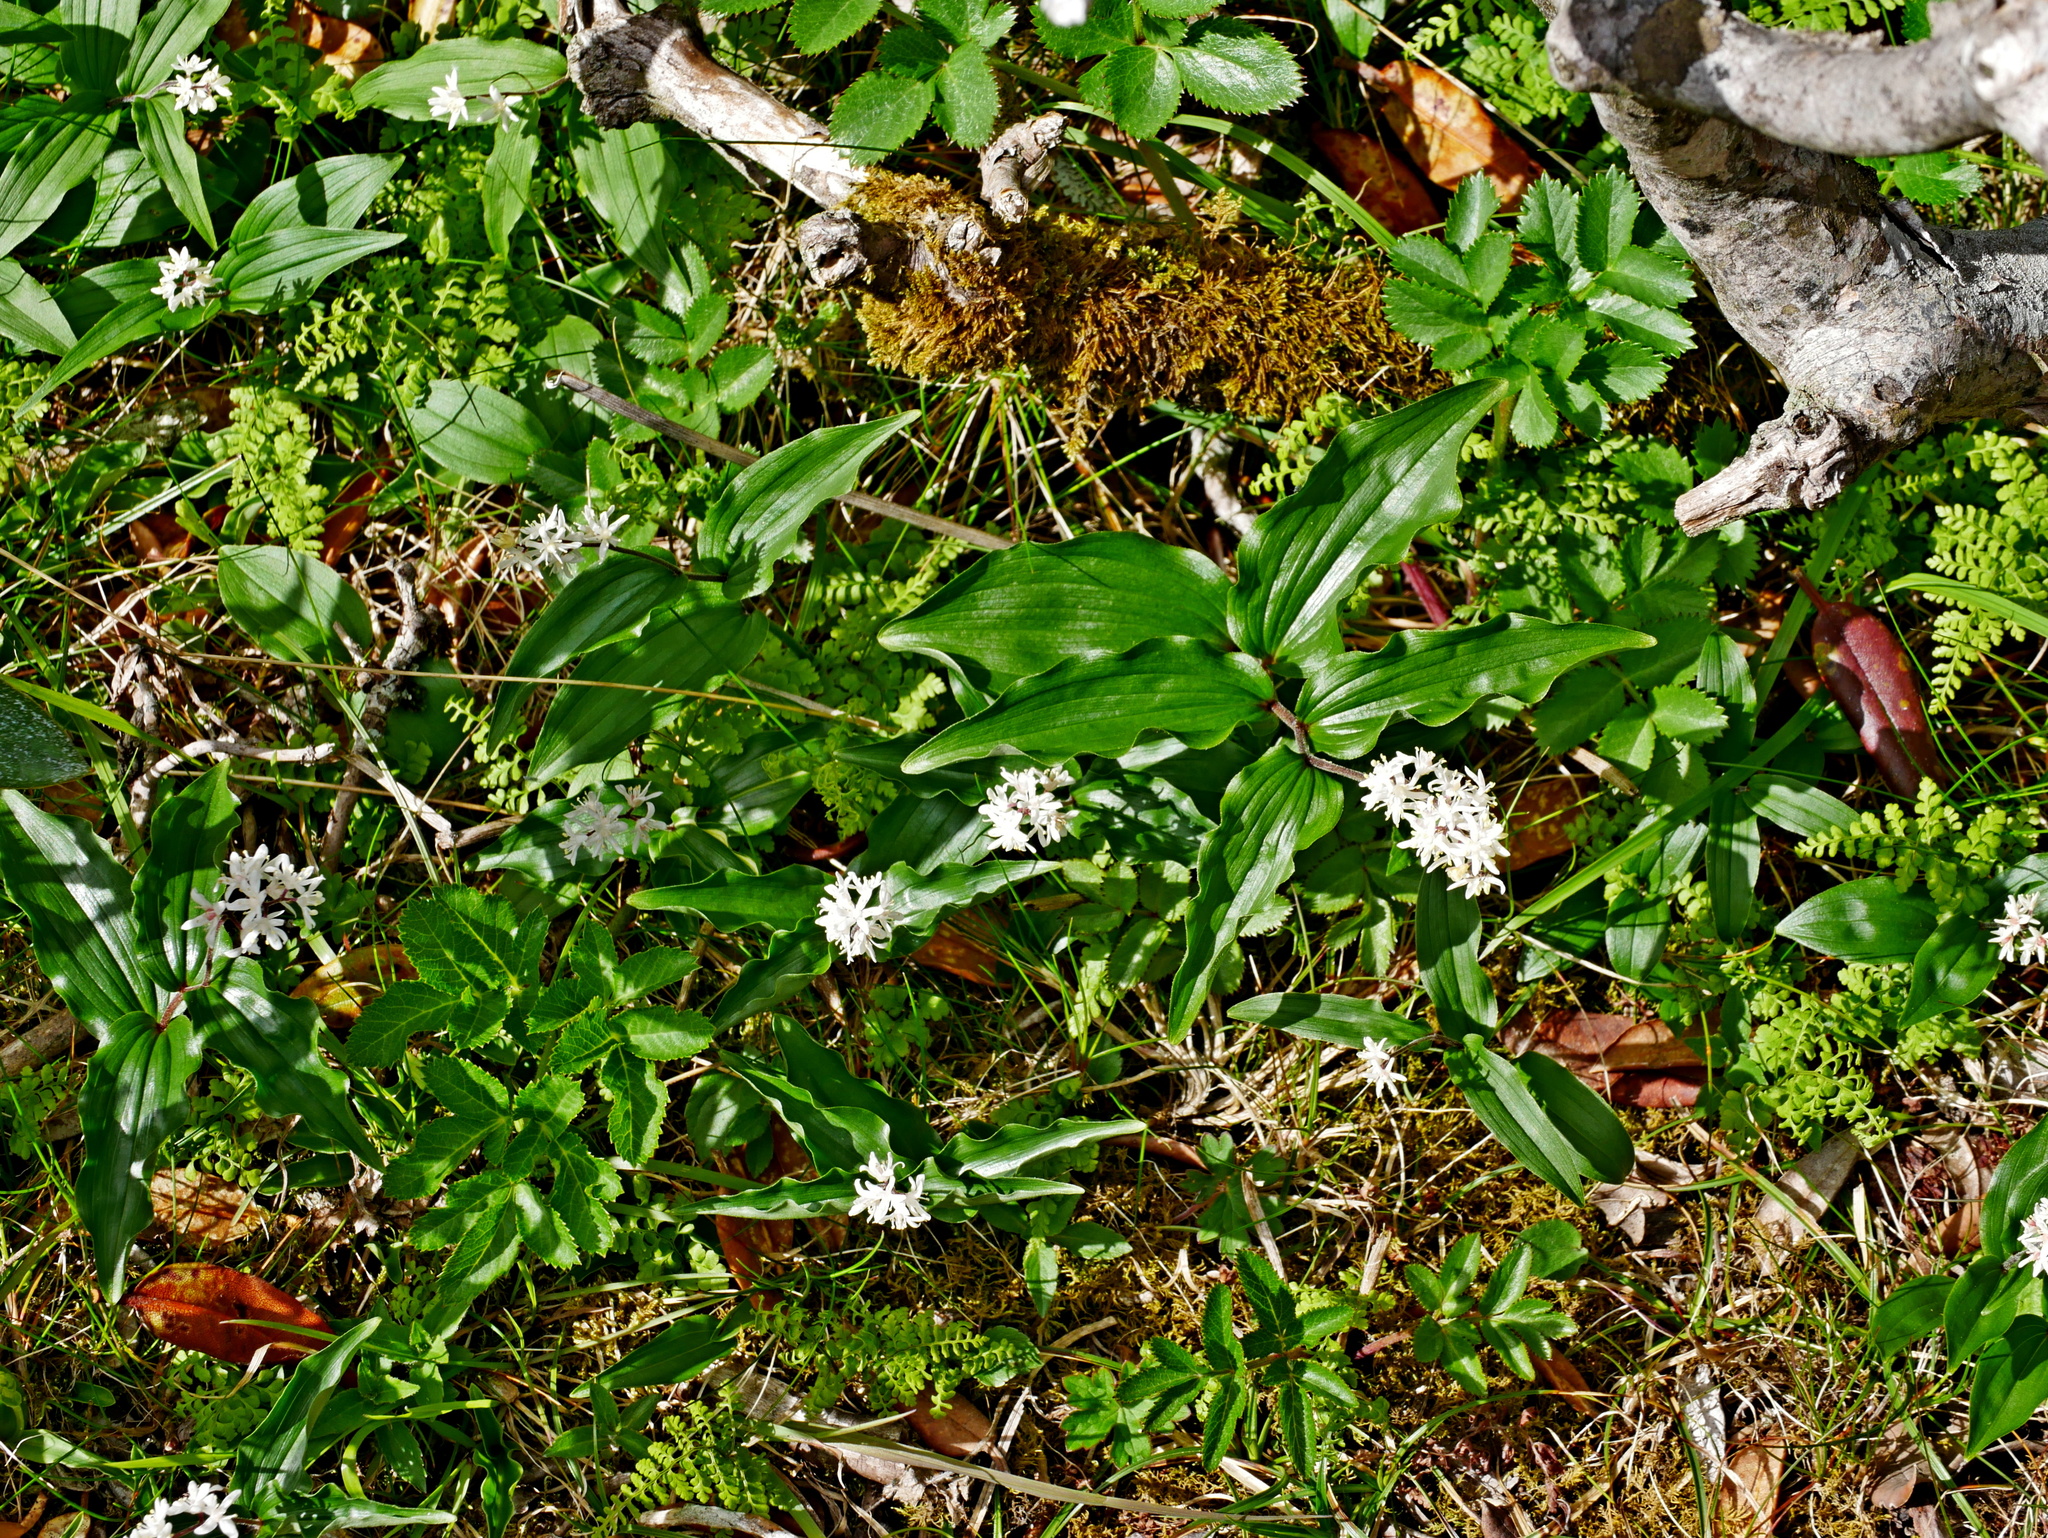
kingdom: Plantae
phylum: Tracheophyta
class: Liliopsida
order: Asparagales
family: Asparagaceae
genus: Maianthemum
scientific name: Maianthemum formosanum
